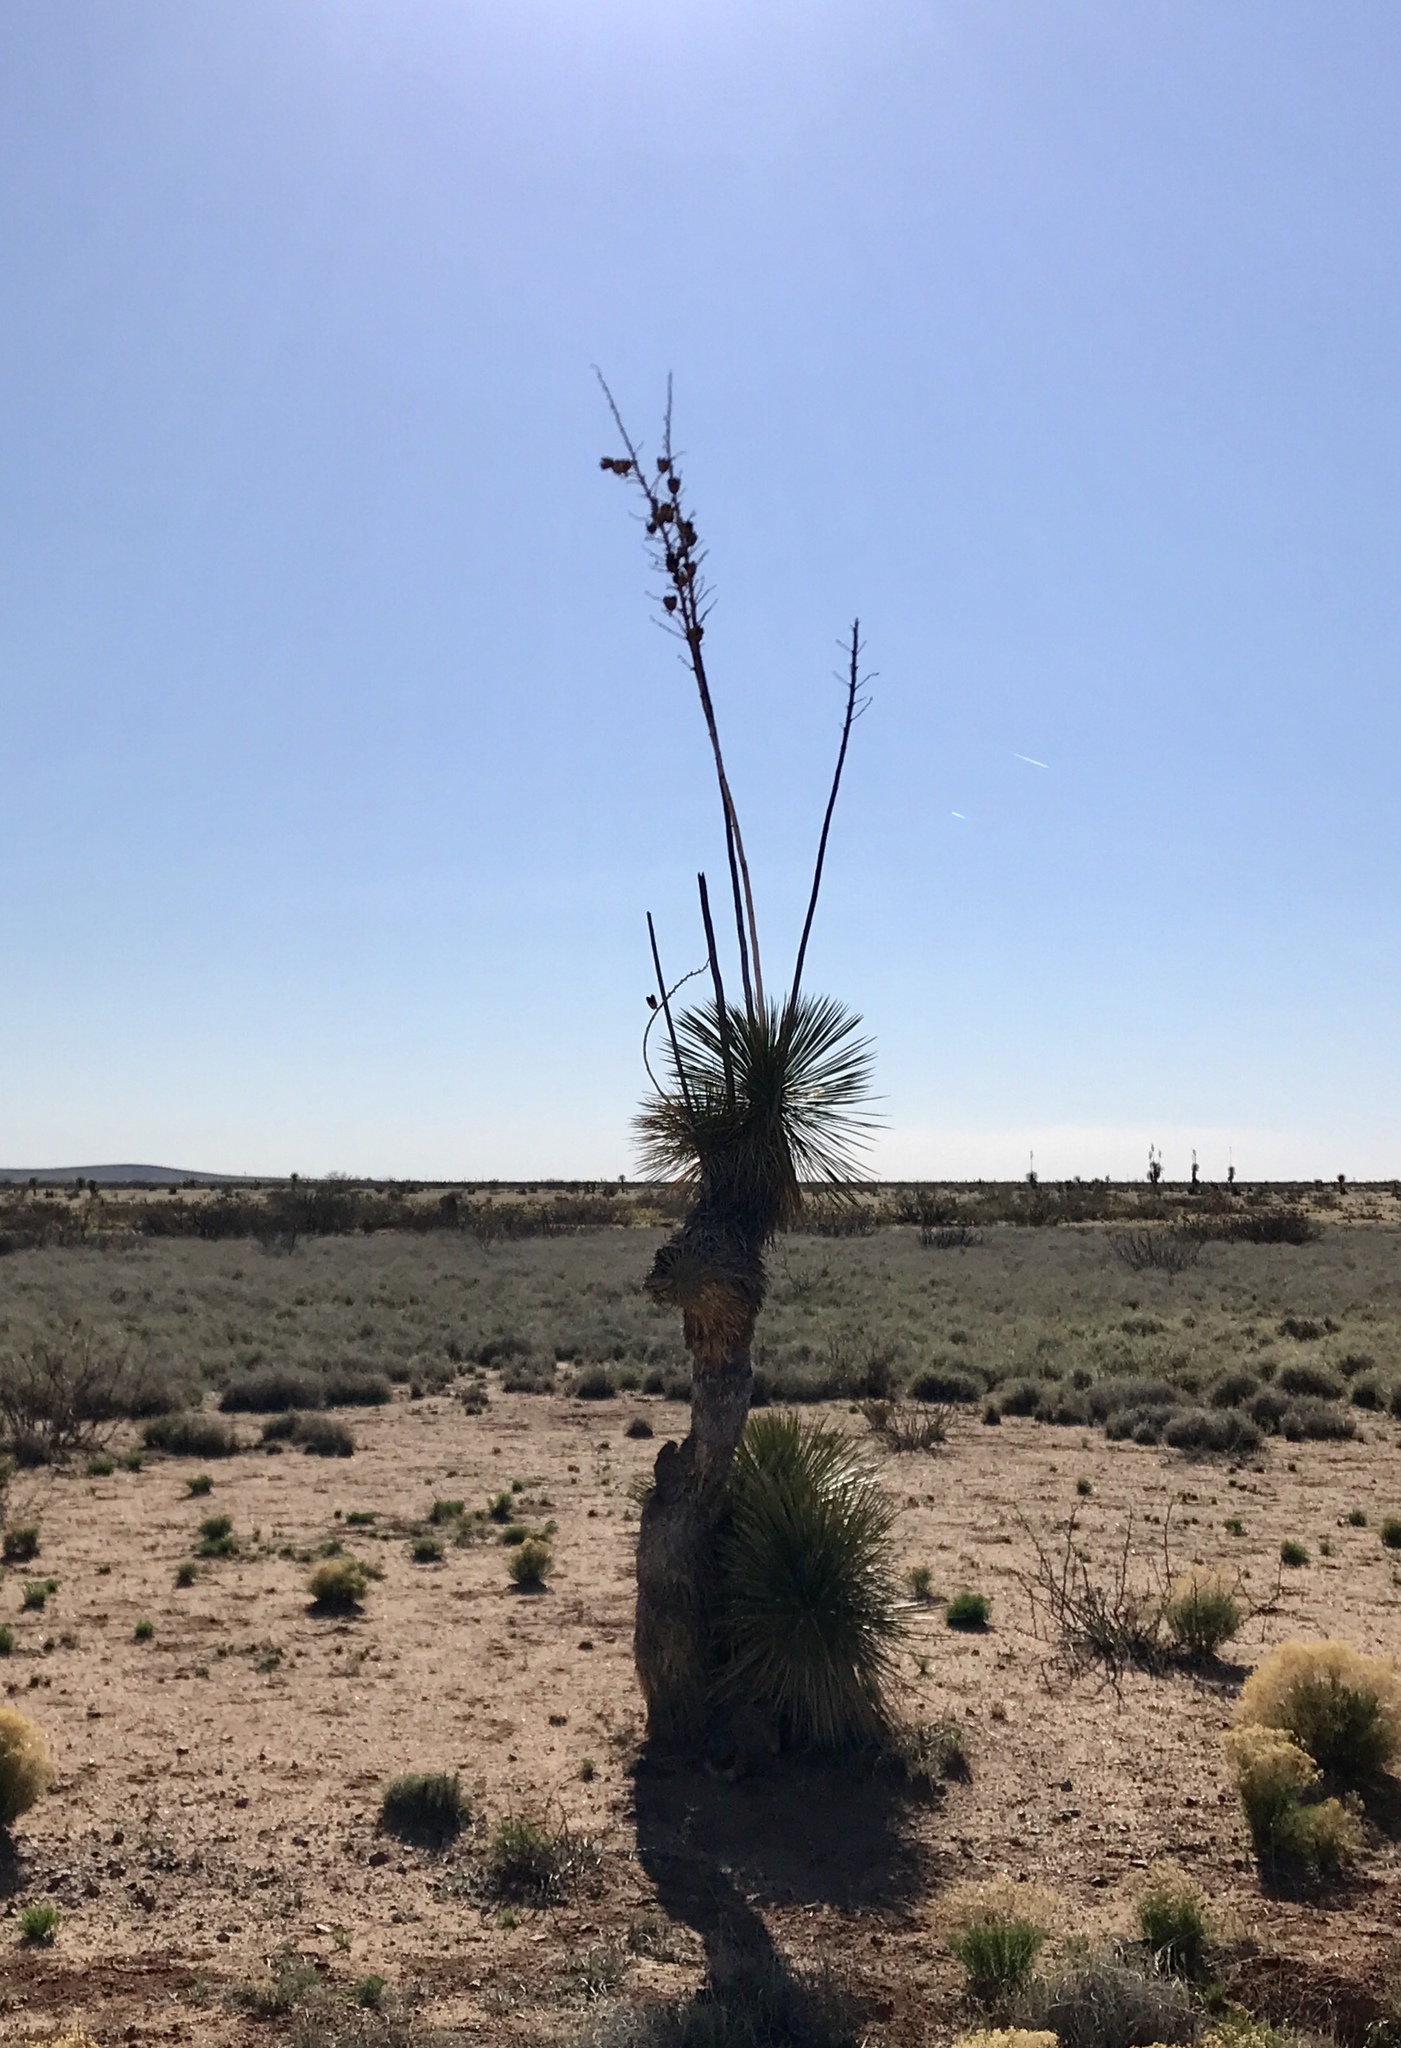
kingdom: Plantae
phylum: Tracheophyta
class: Liliopsida
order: Asparagales
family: Asparagaceae
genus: Yucca
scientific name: Yucca elata
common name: Palmella
